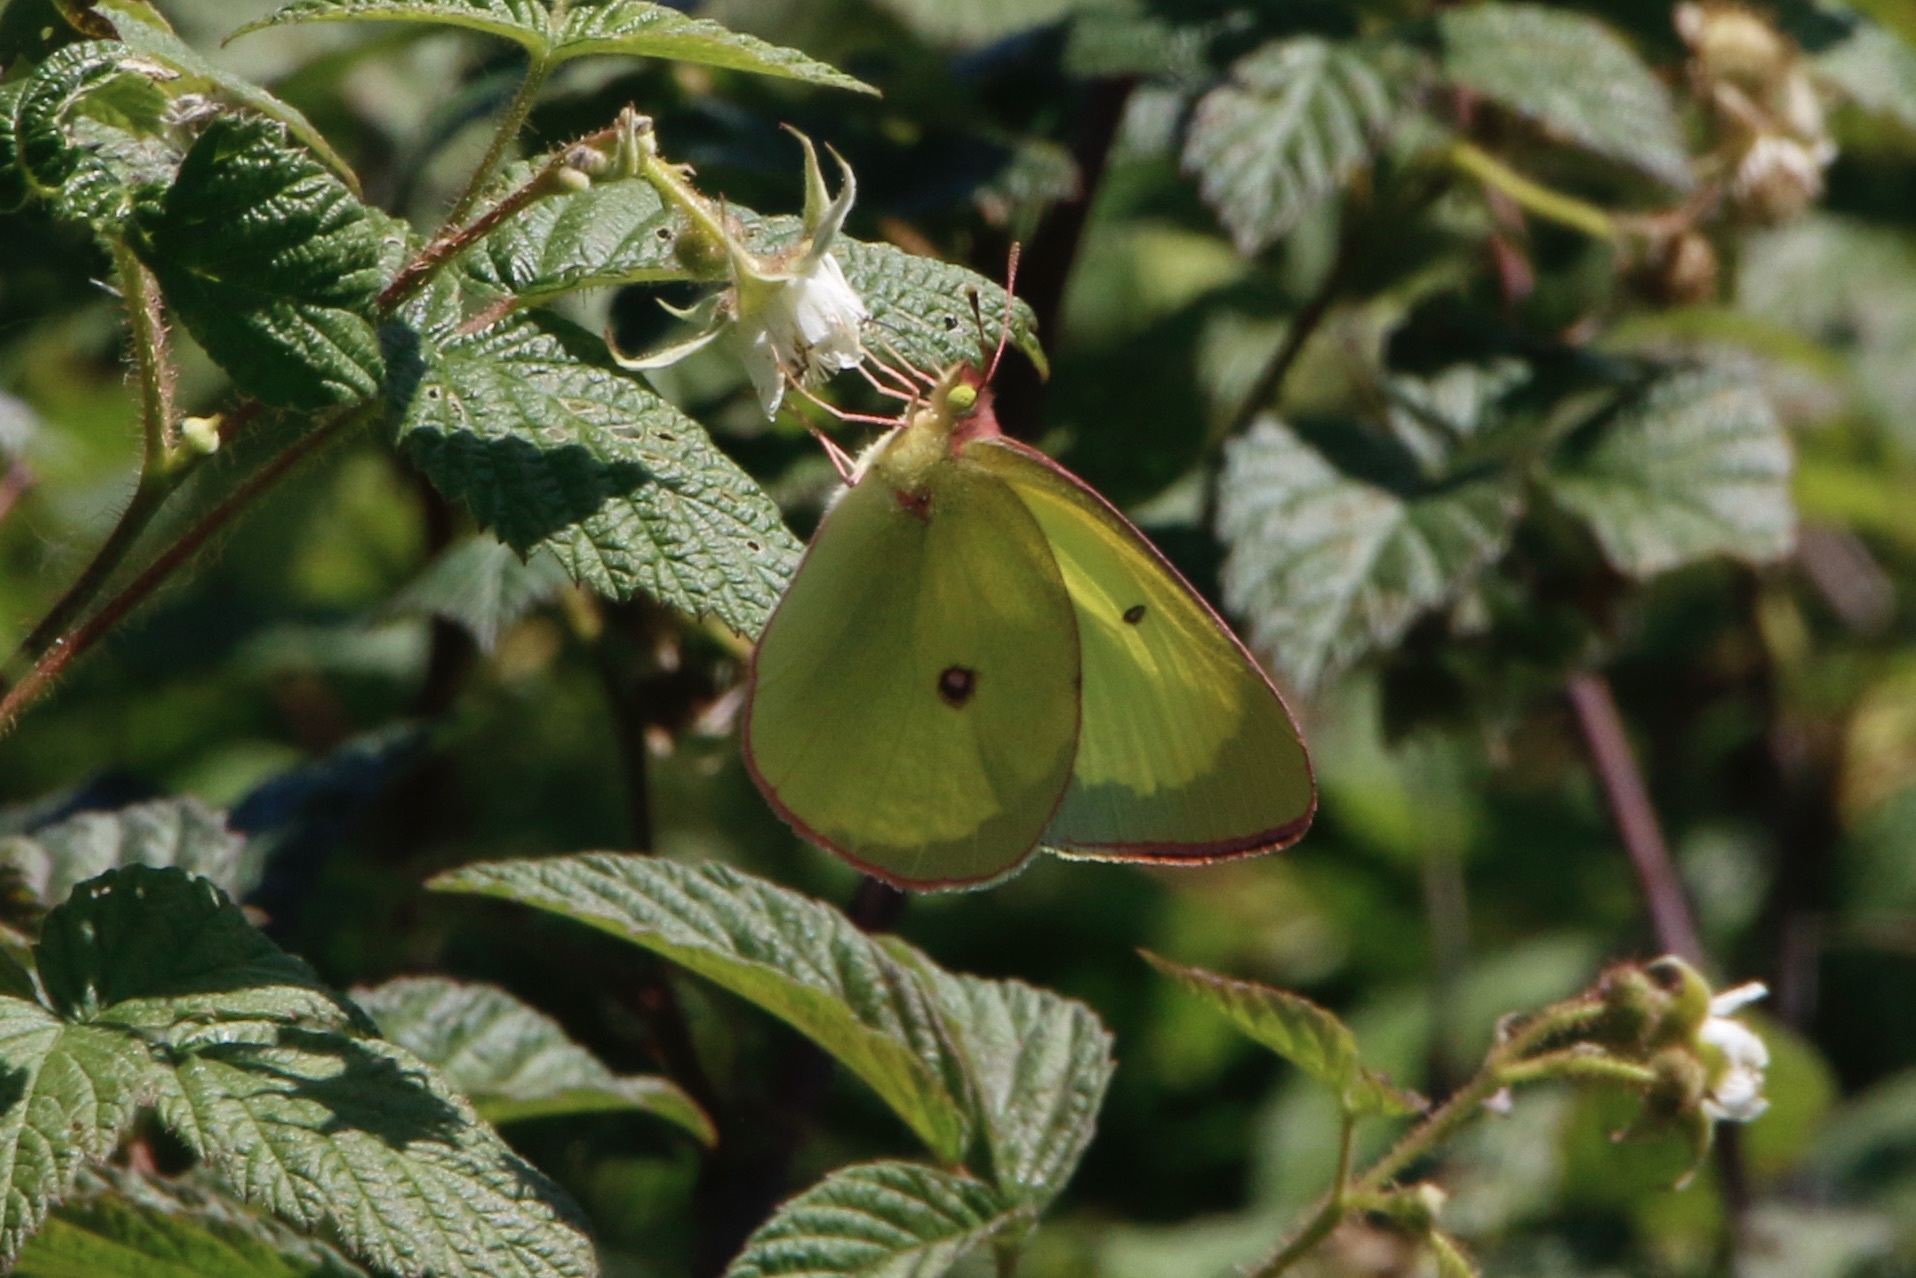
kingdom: Animalia
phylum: Arthropoda
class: Insecta
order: Lepidoptera
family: Pieridae
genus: Colias
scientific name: Colias interior
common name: Pink-edged sulphur
